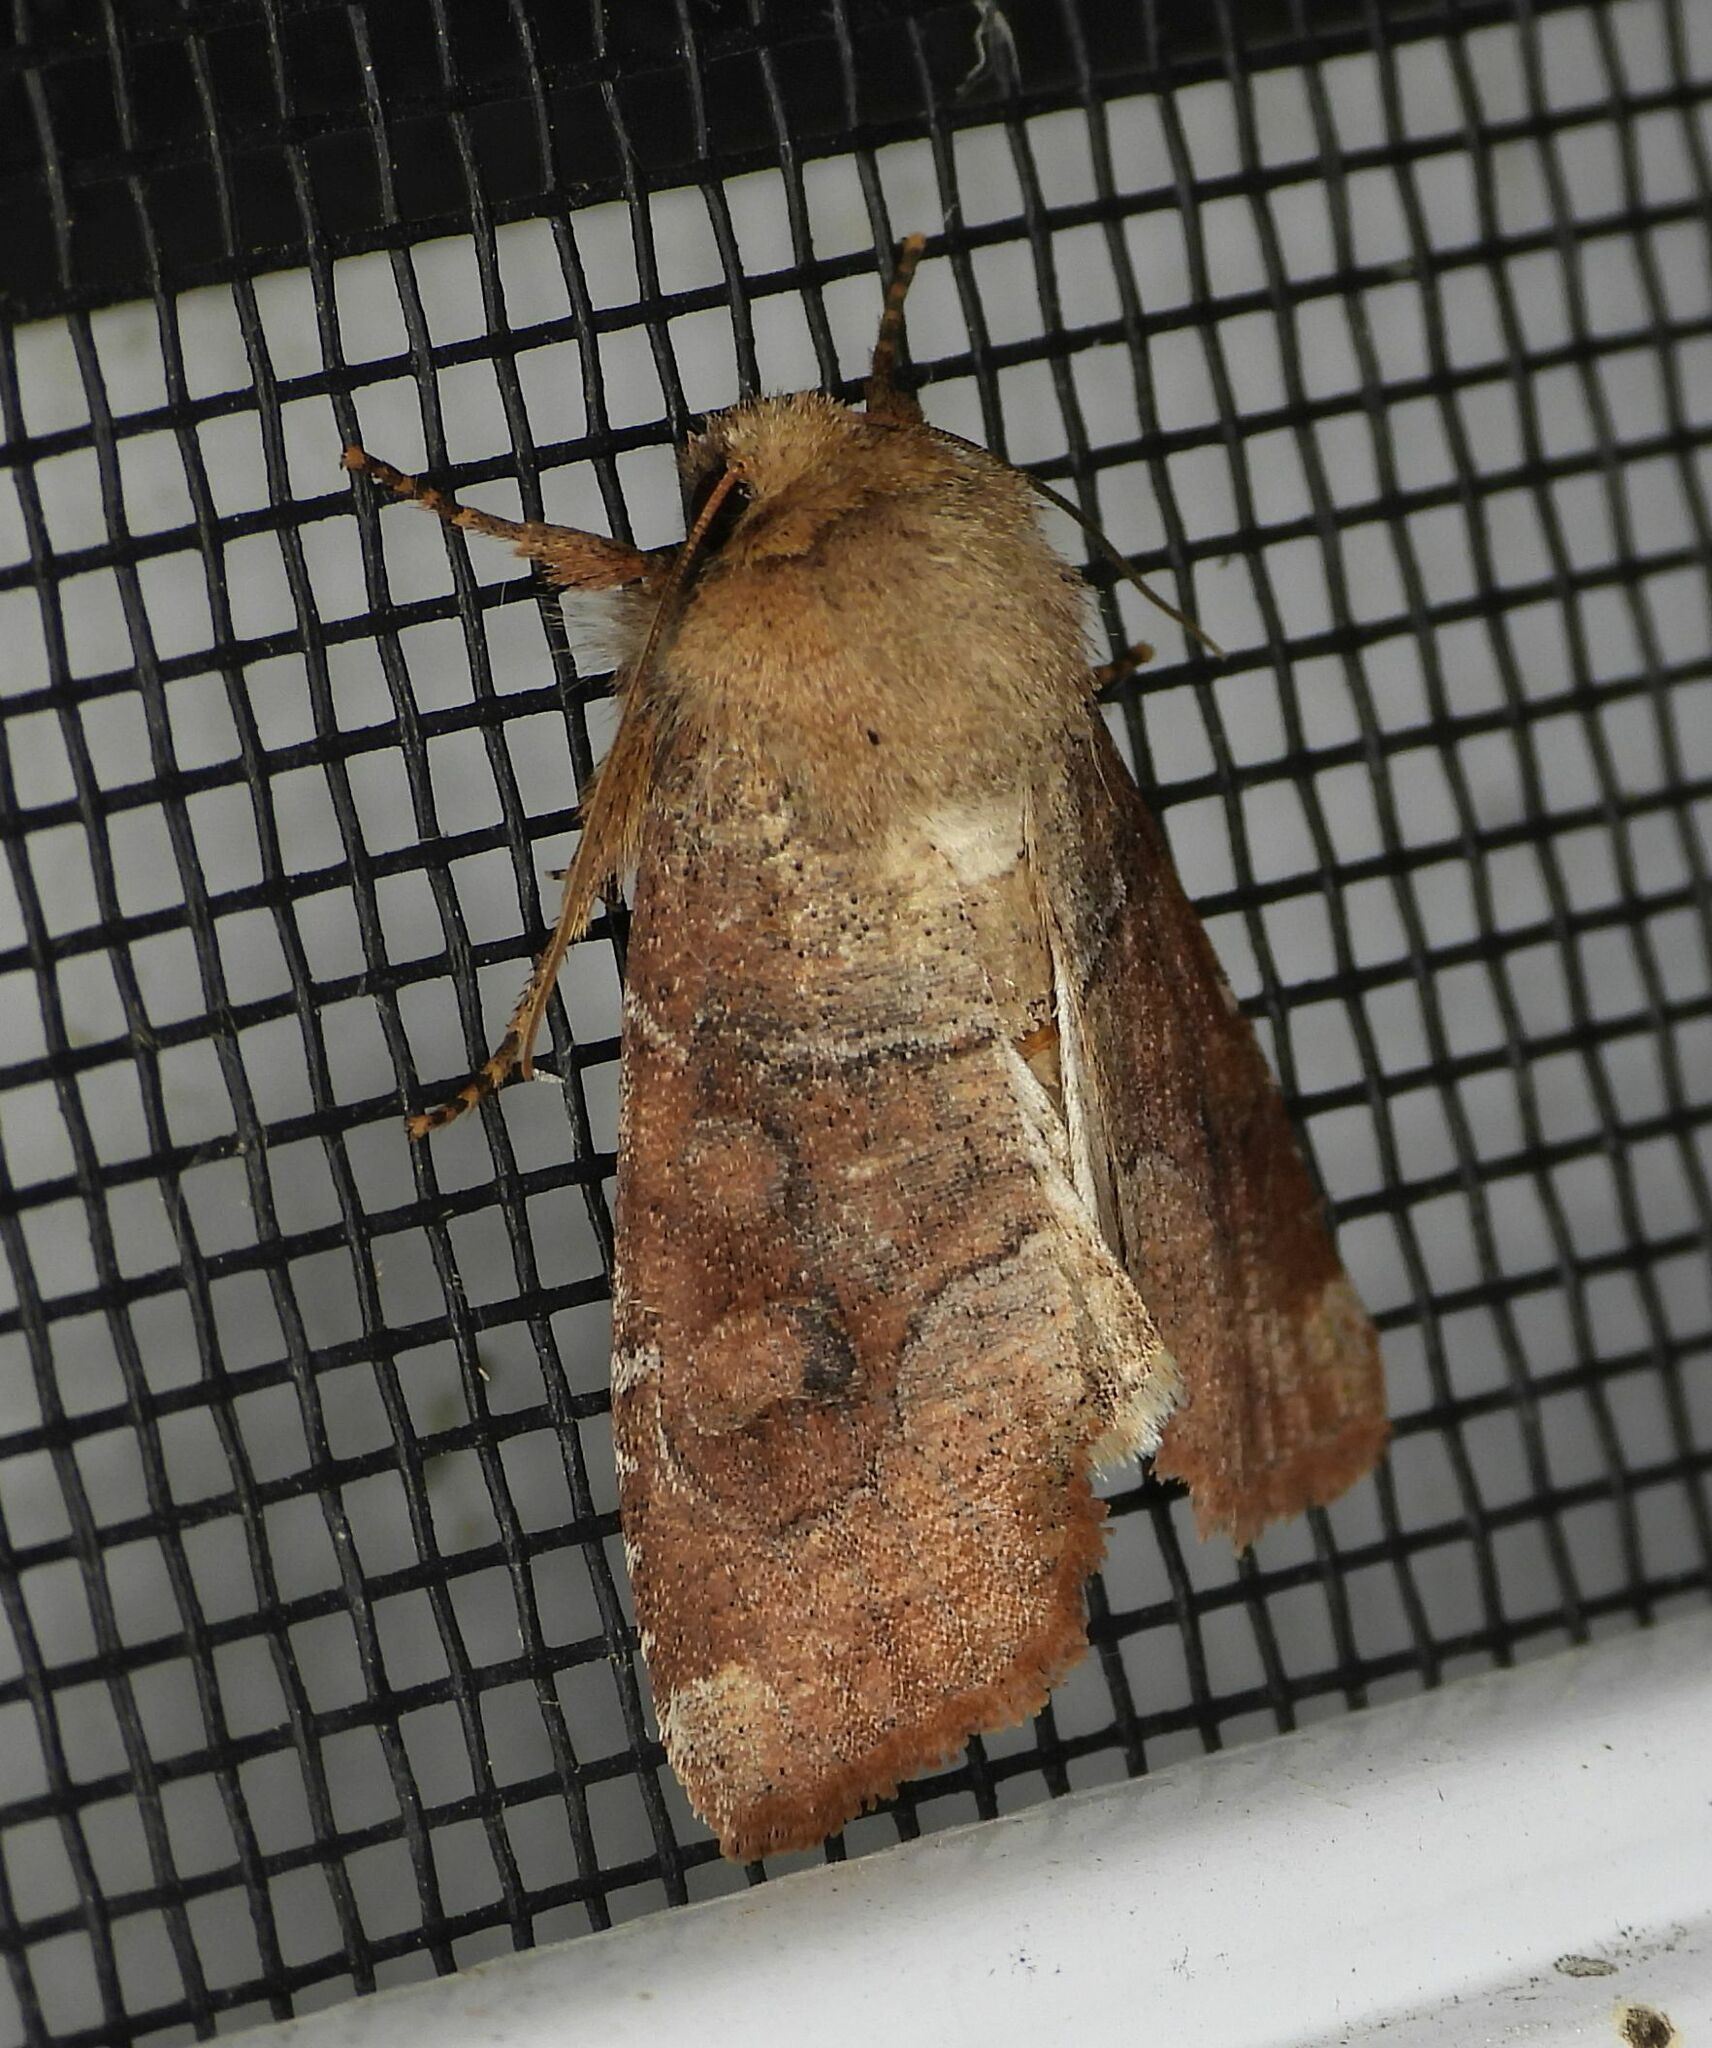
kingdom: Animalia
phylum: Arthropoda
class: Insecta
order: Lepidoptera
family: Noctuidae
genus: Crocigrapha
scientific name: Crocigrapha normani
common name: Norman's quaker
